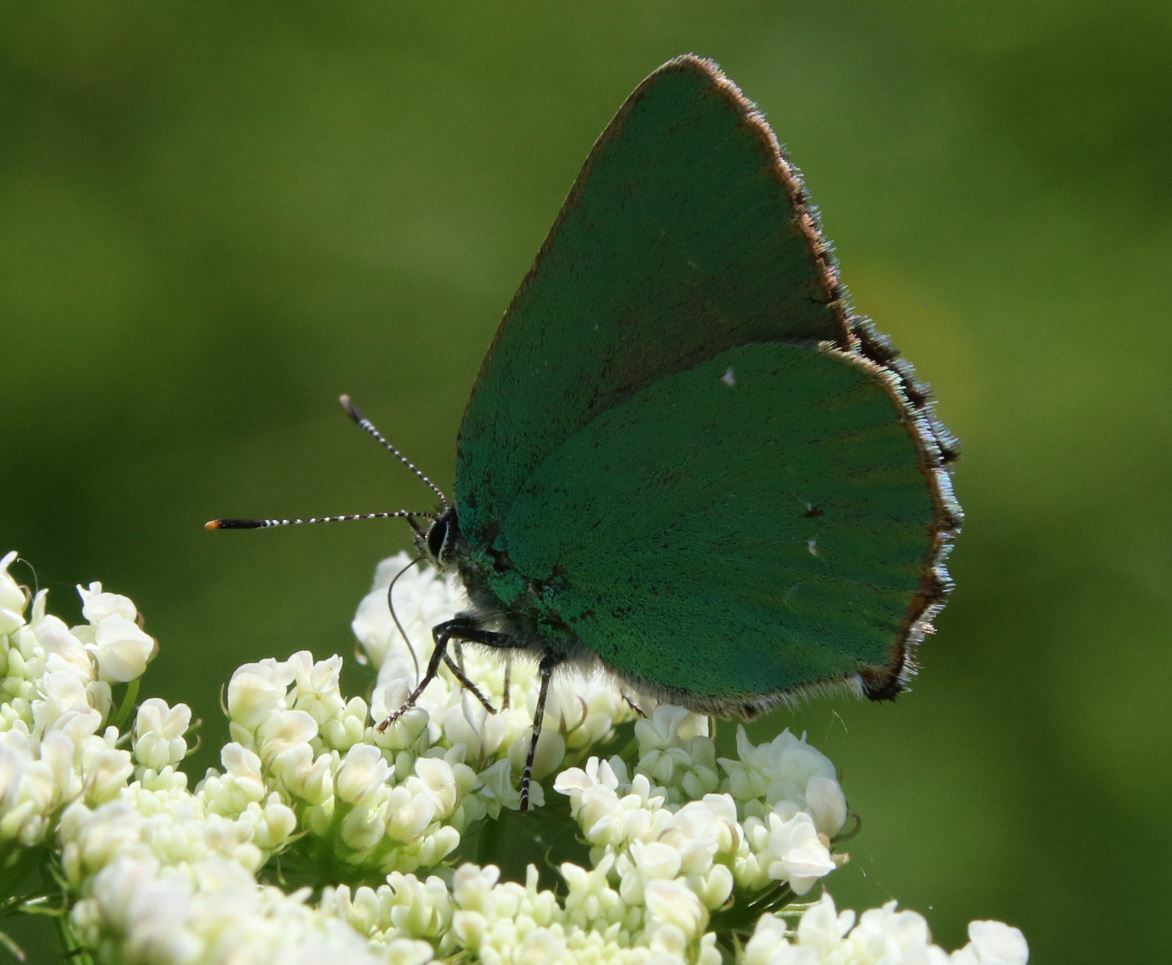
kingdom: Animalia
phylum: Arthropoda
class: Insecta
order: Lepidoptera
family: Lycaenidae
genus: Callophrys
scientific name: Callophrys rubi
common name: Green hairstreak
